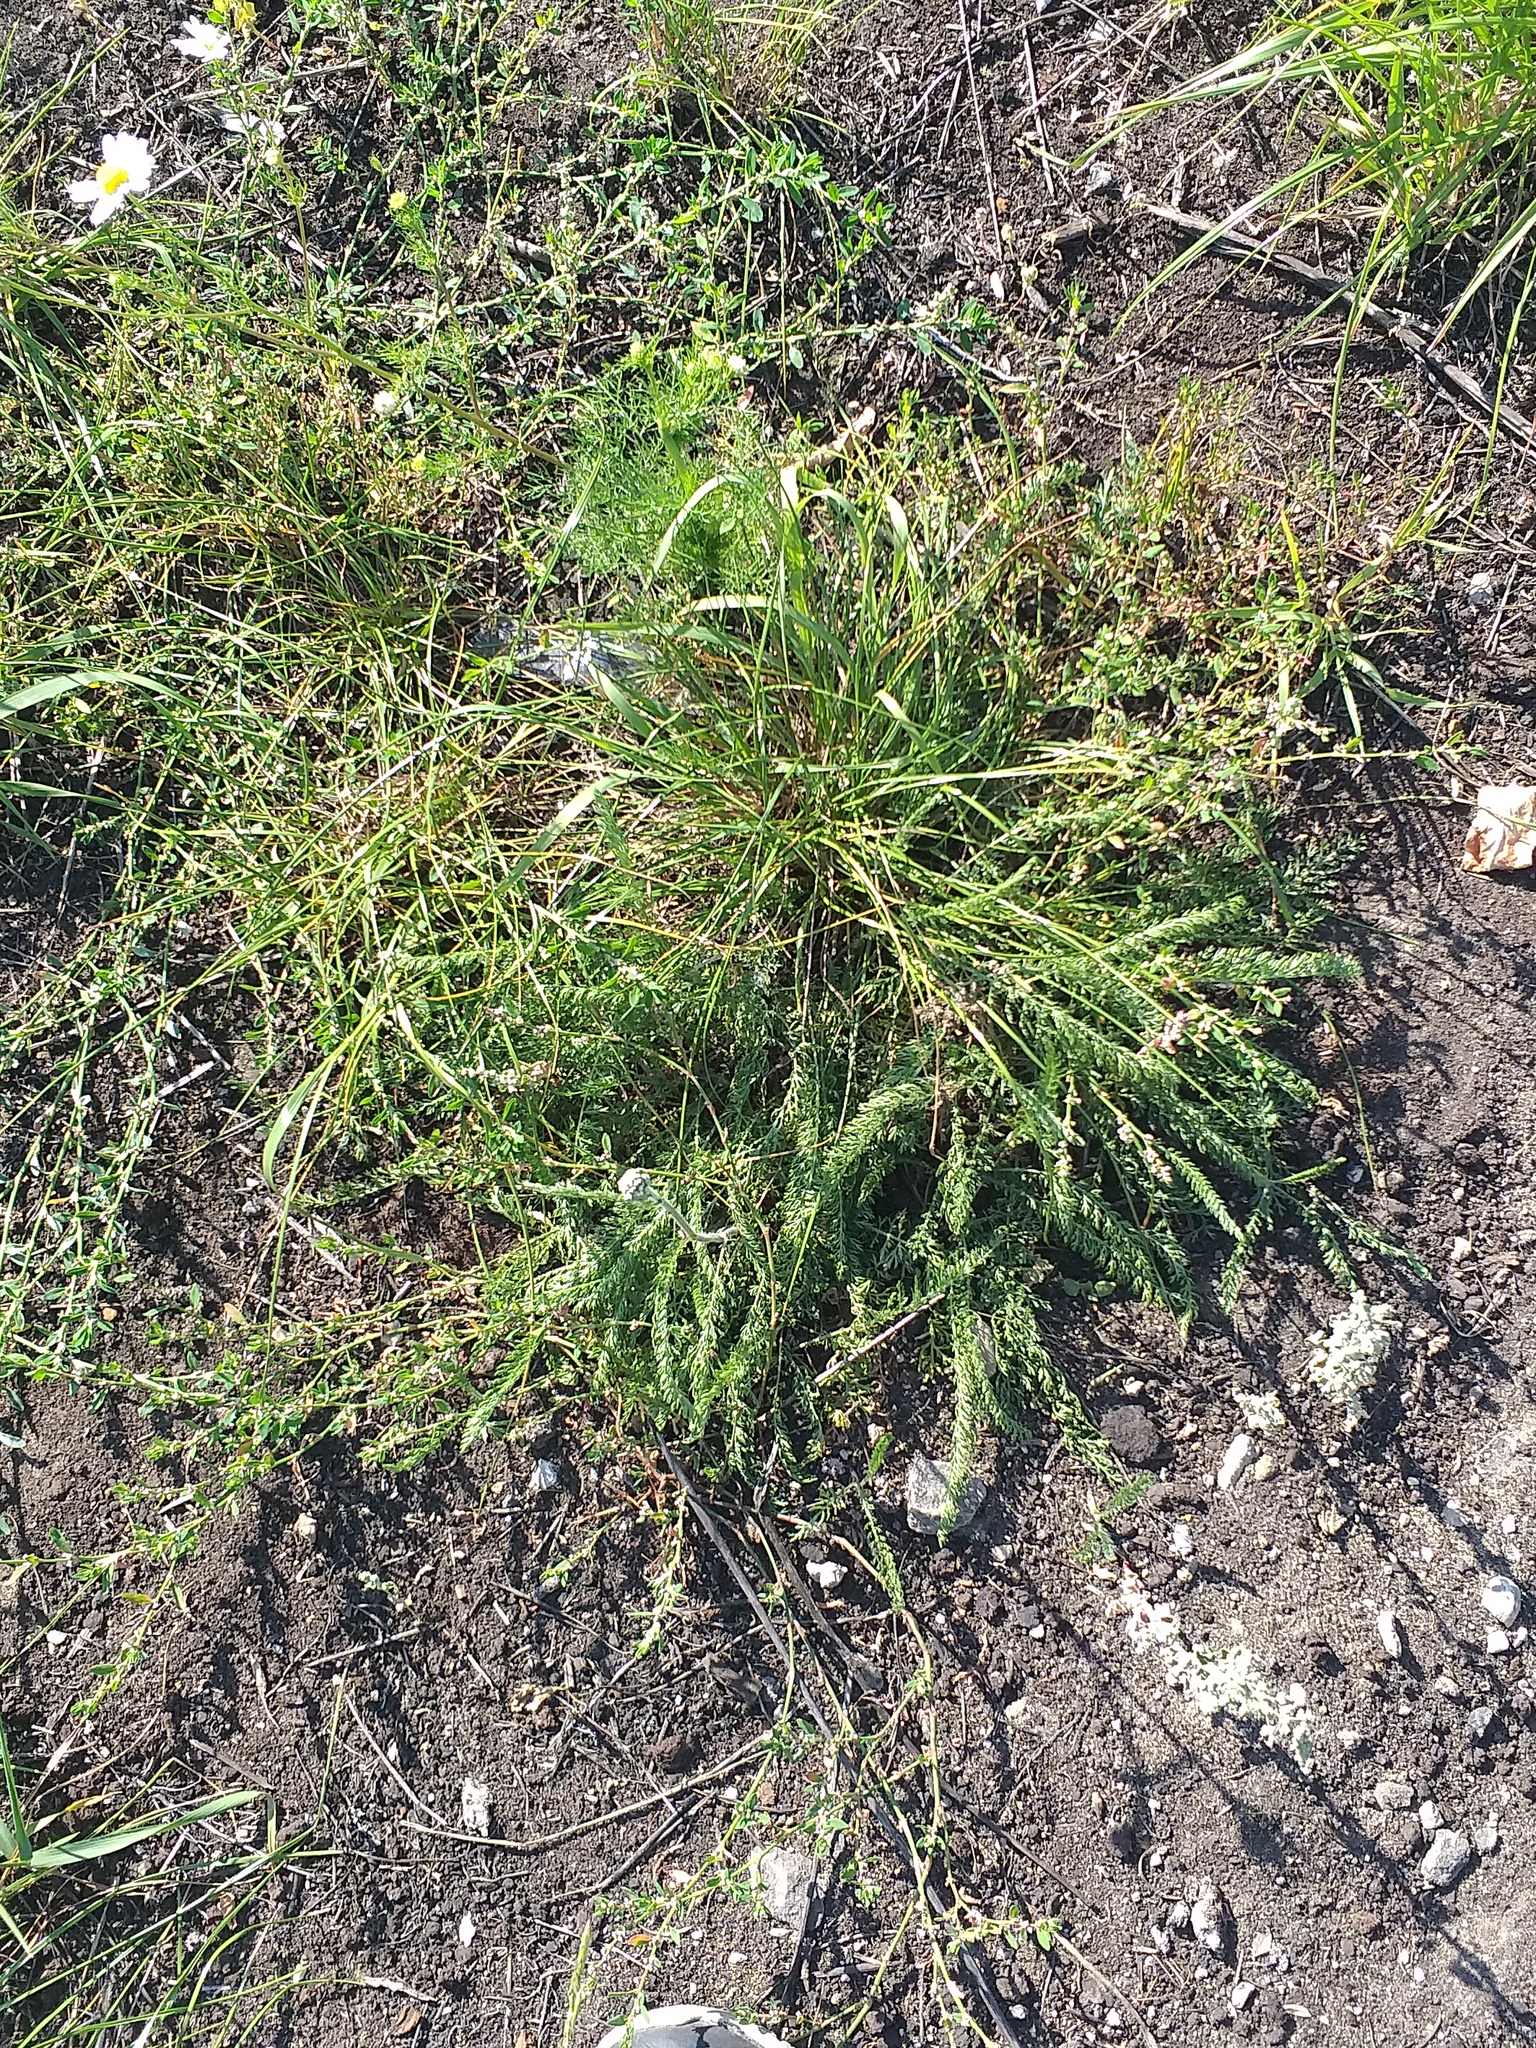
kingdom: Plantae
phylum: Tracheophyta
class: Magnoliopsida
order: Asterales
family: Asteraceae
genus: Achillea
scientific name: Achillea millefolium
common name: Yarrow
